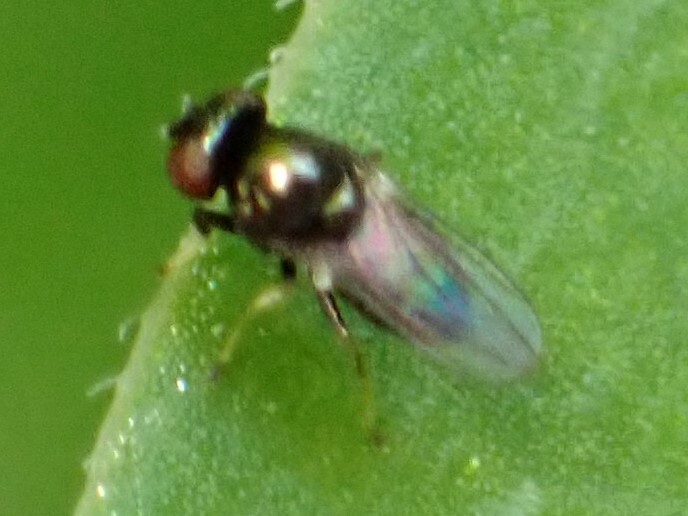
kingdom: Animalia
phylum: Arthropoda
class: Insecta
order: Diptera
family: Ephydridae
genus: Athyroglossa
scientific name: Athyroglossa glaphyropus
